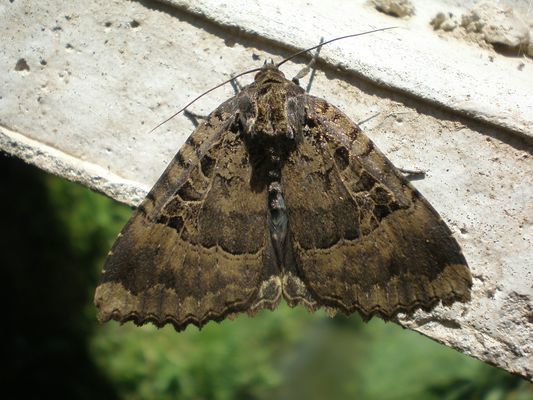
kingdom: Animalia
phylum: Arthropoda
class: Insecta
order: Lepidoptera
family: Noctuidae
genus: Mormo
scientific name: Mormo maura
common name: Old lady
